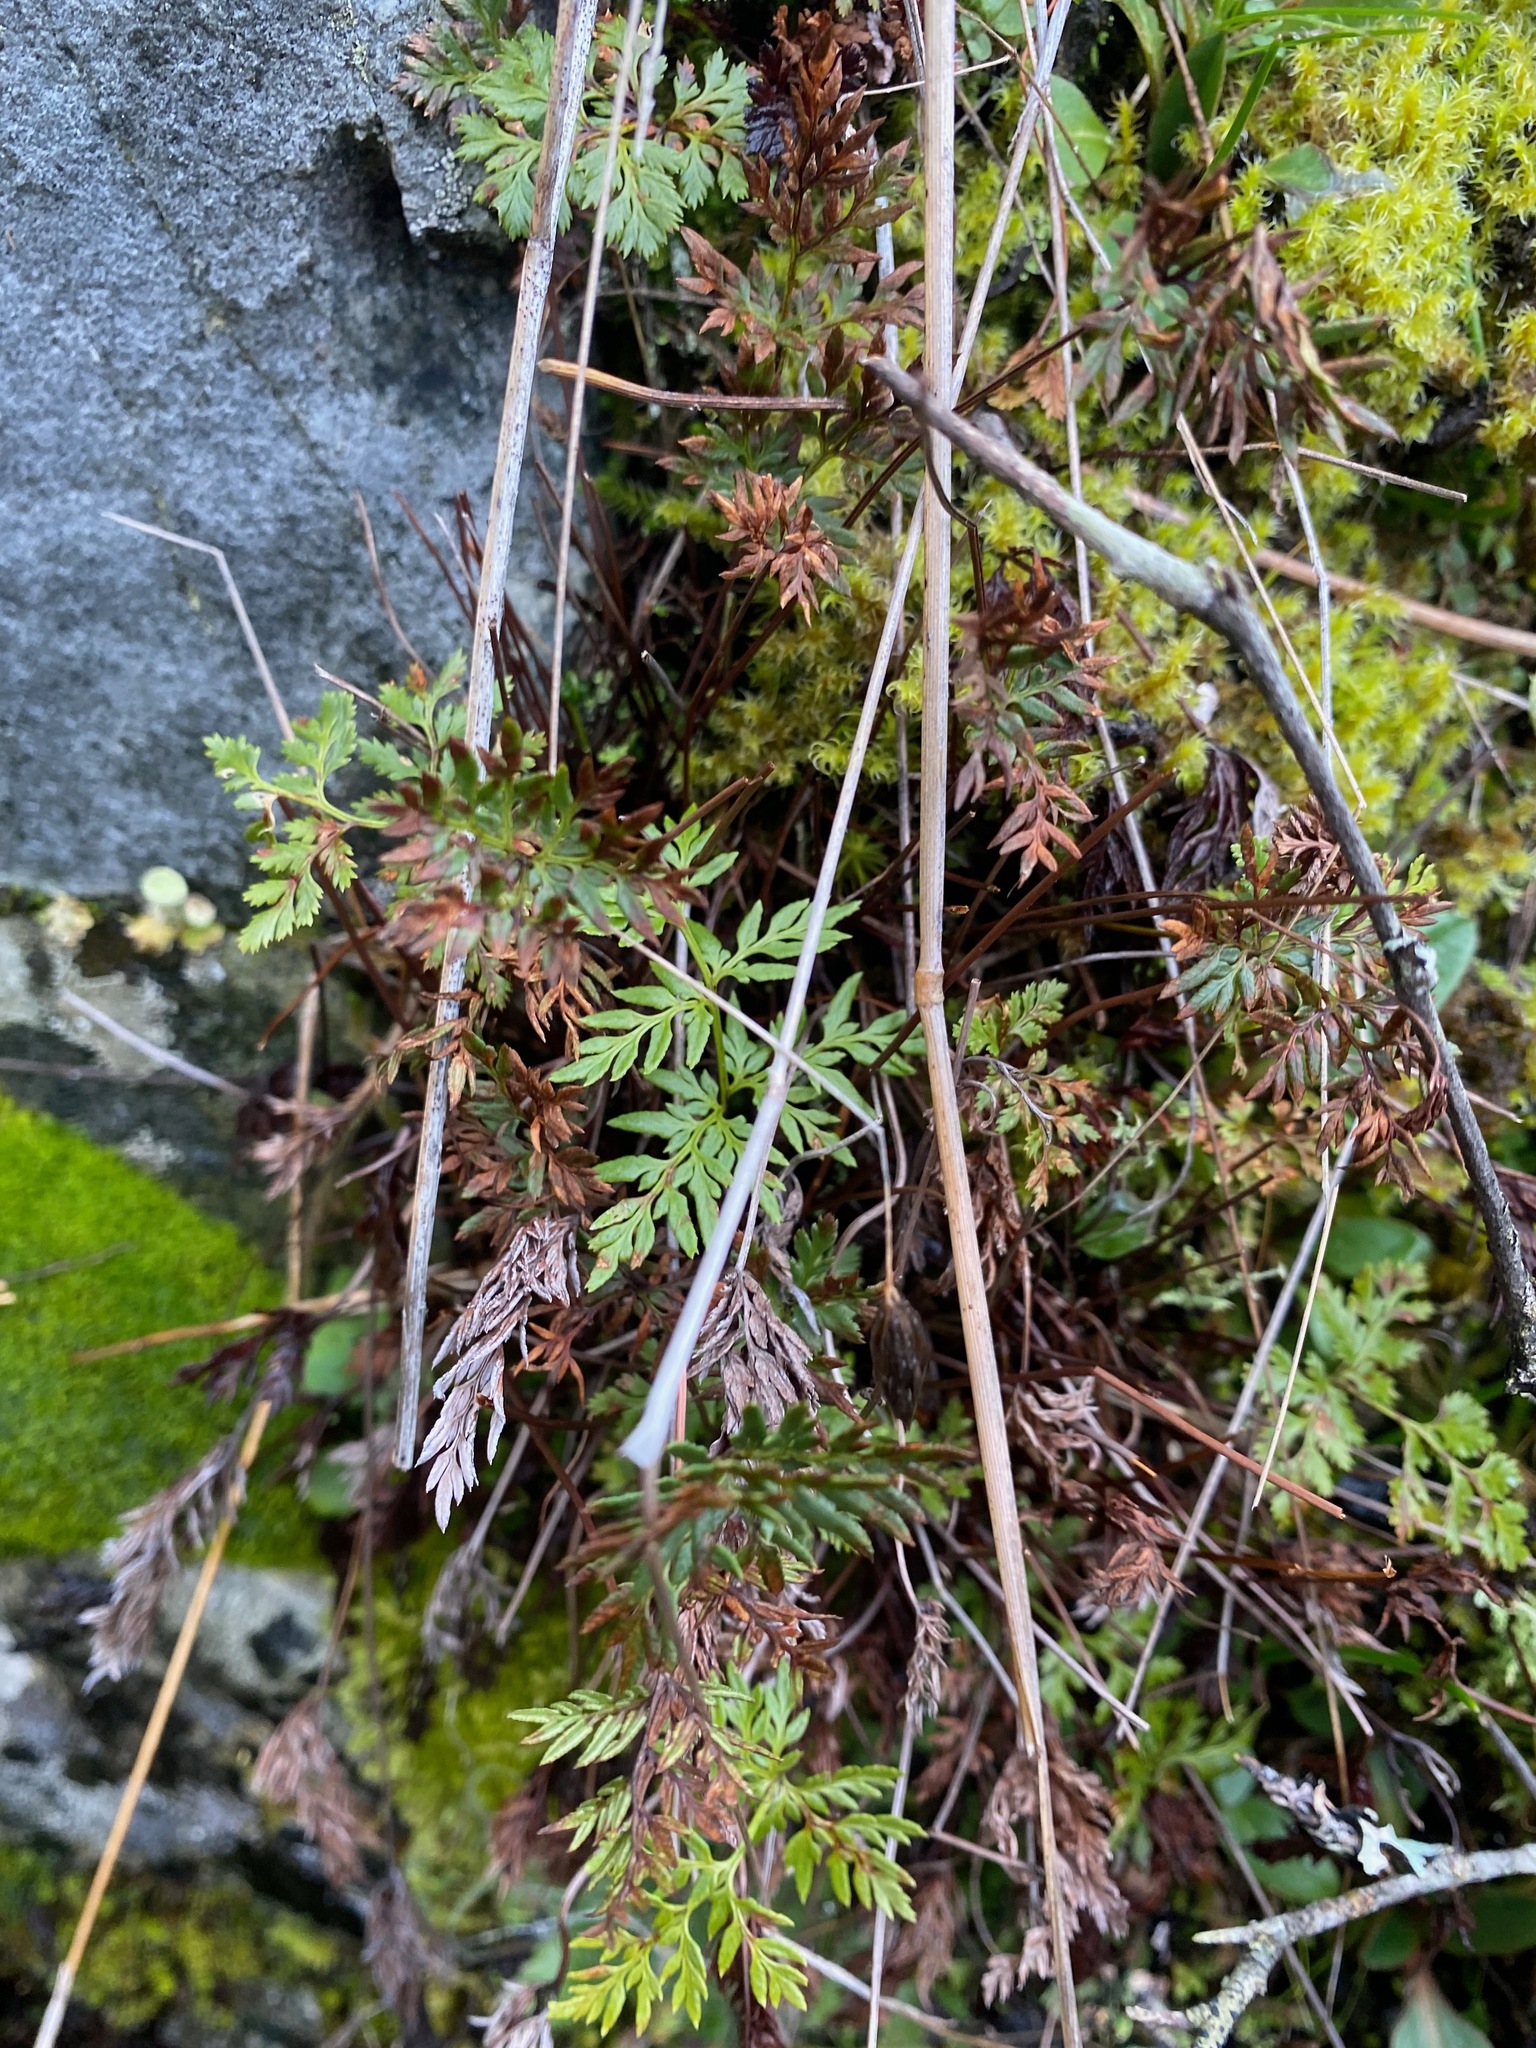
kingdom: Plantae
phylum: Tracheophyta
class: Polypodiopsida
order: Polypodiales
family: Pteridaceae
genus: Aspidotis
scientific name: Aspidotis densa
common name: Indian's dream
